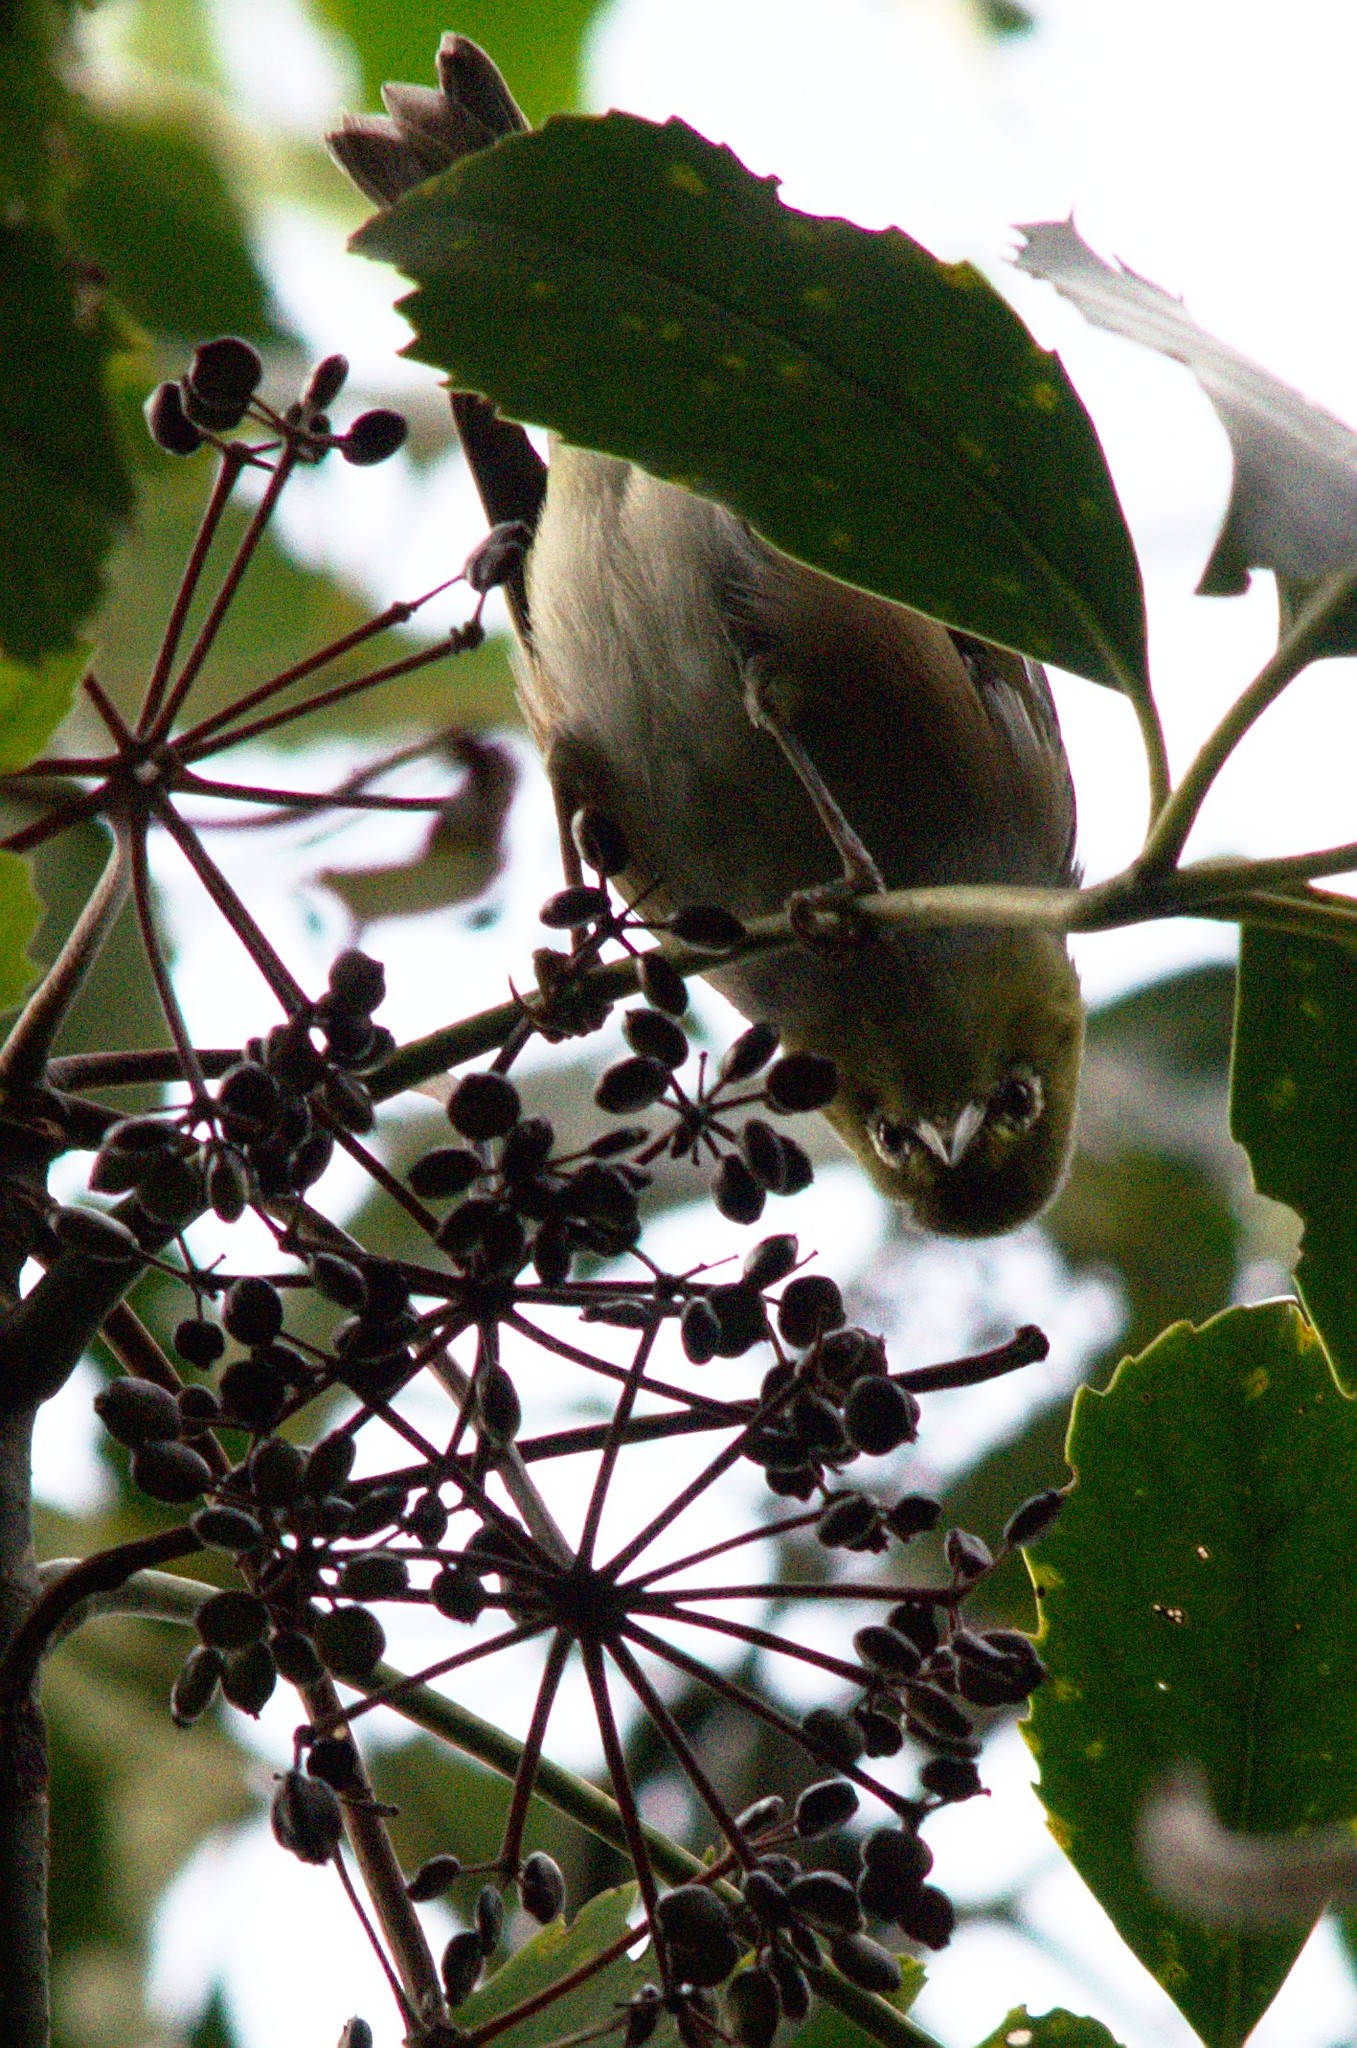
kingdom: Animalia
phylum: Chordata
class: Aves
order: Passeriformes
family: Zosteropidae
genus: Zosterops
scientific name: Zosterops lateralis
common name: Silvereye
